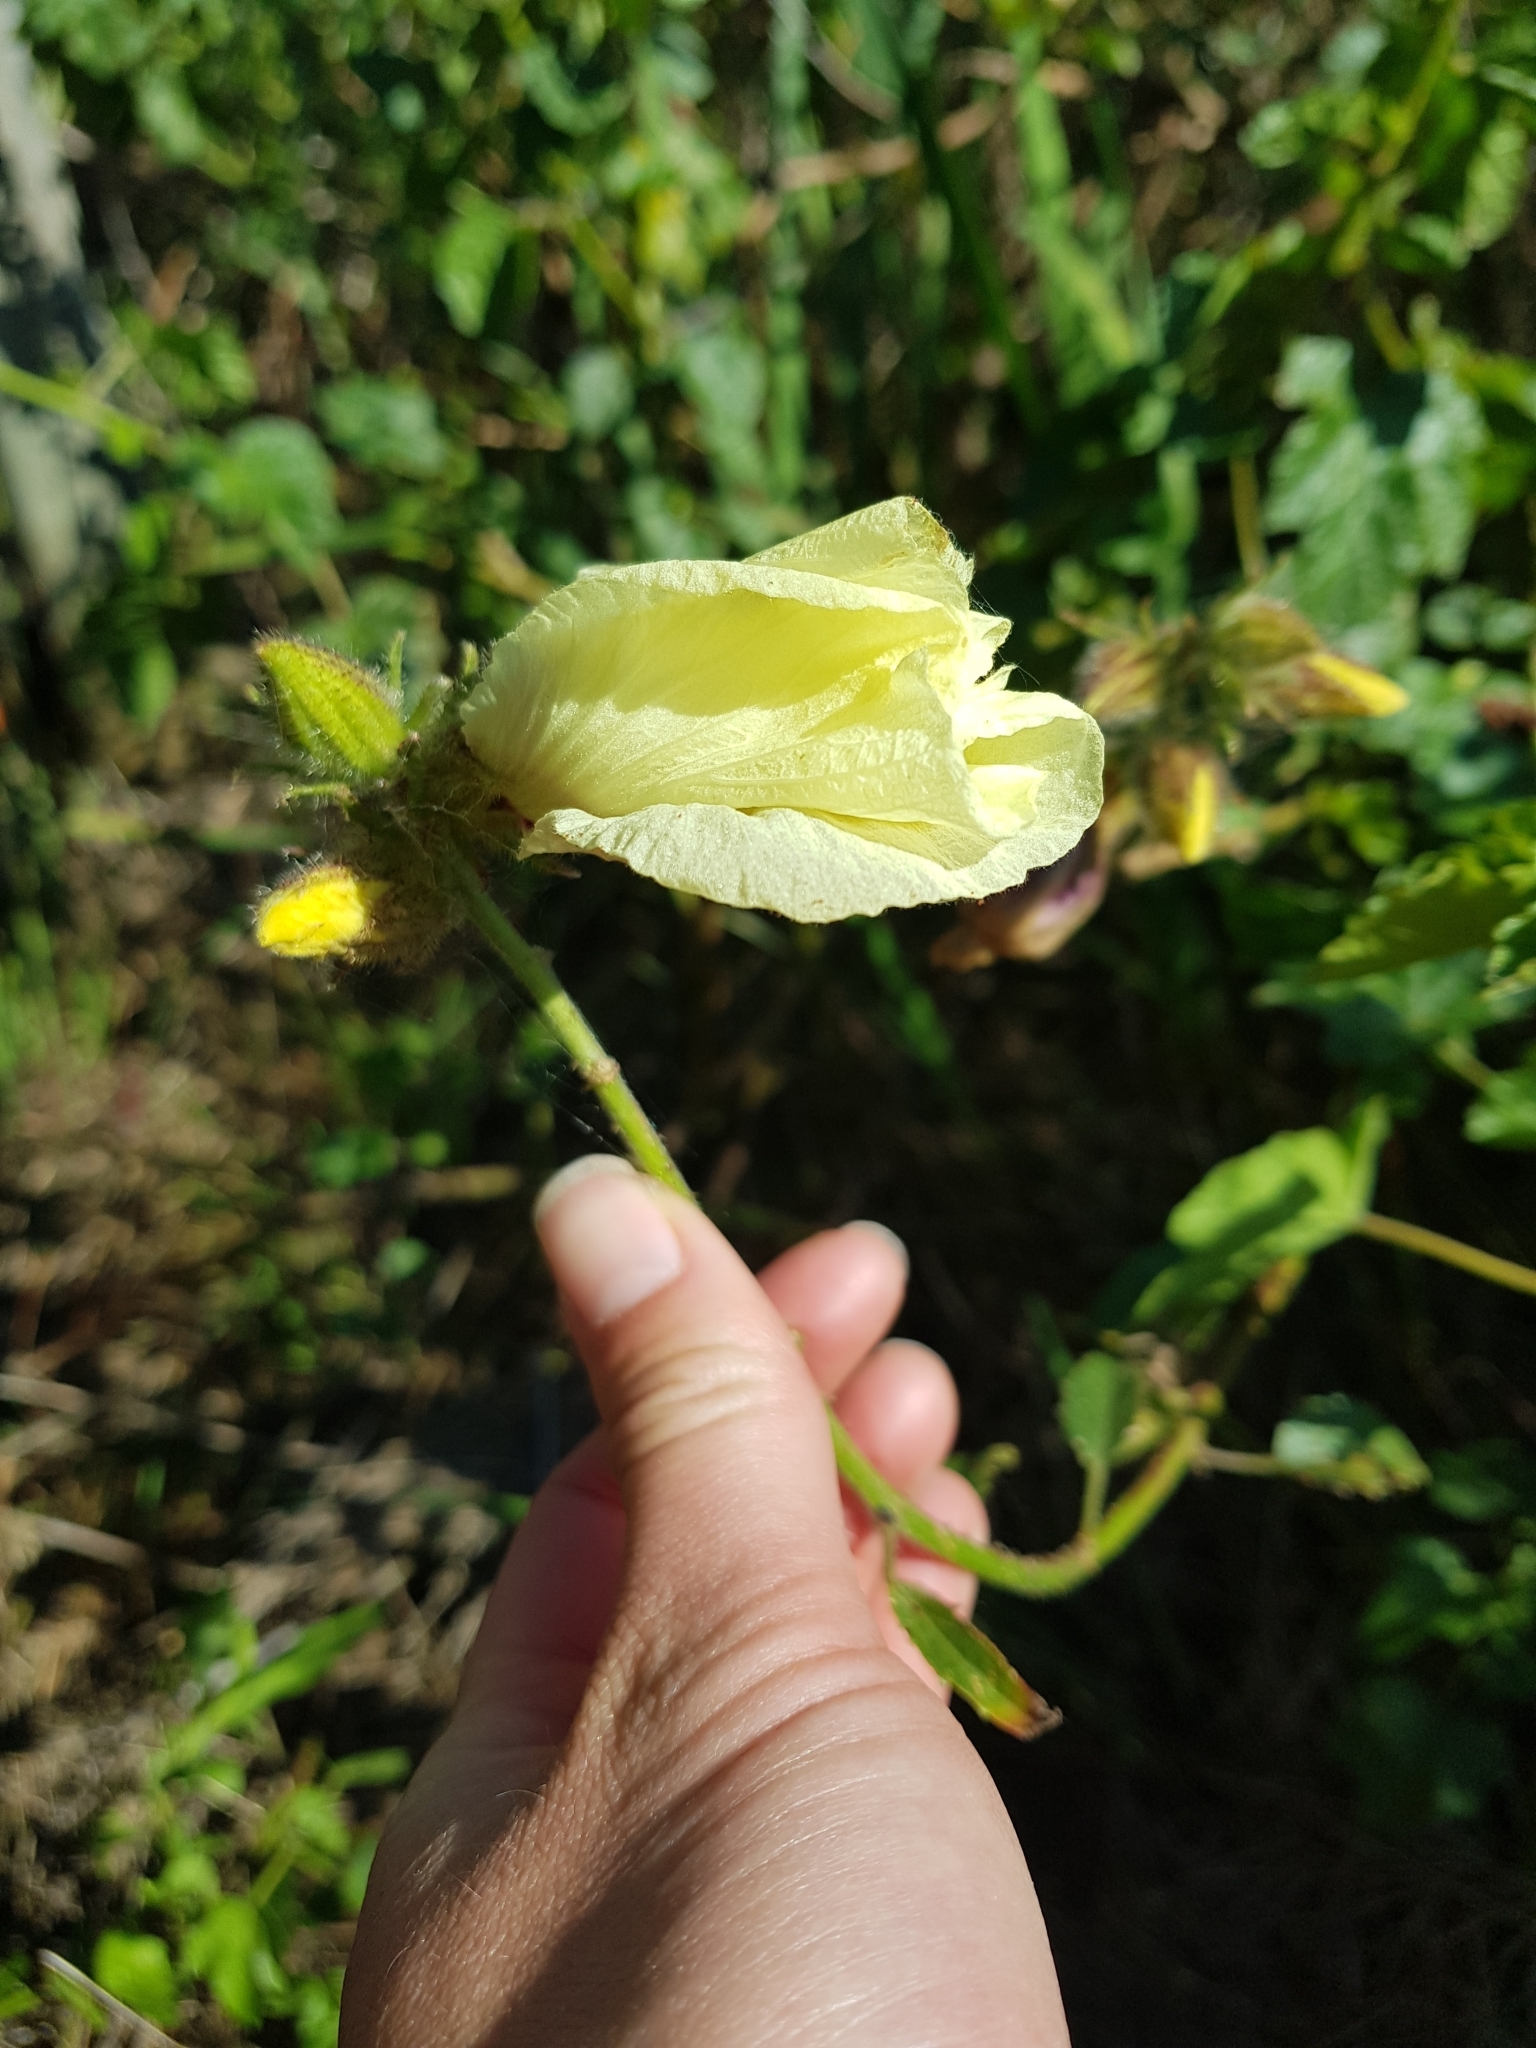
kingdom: Plantae
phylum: Tracheophyta
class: Magnoliopsida
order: Malvales
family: Malvaceae
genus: Hibiscus
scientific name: Hibiscus diversifolius
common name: Cape hibiscus
